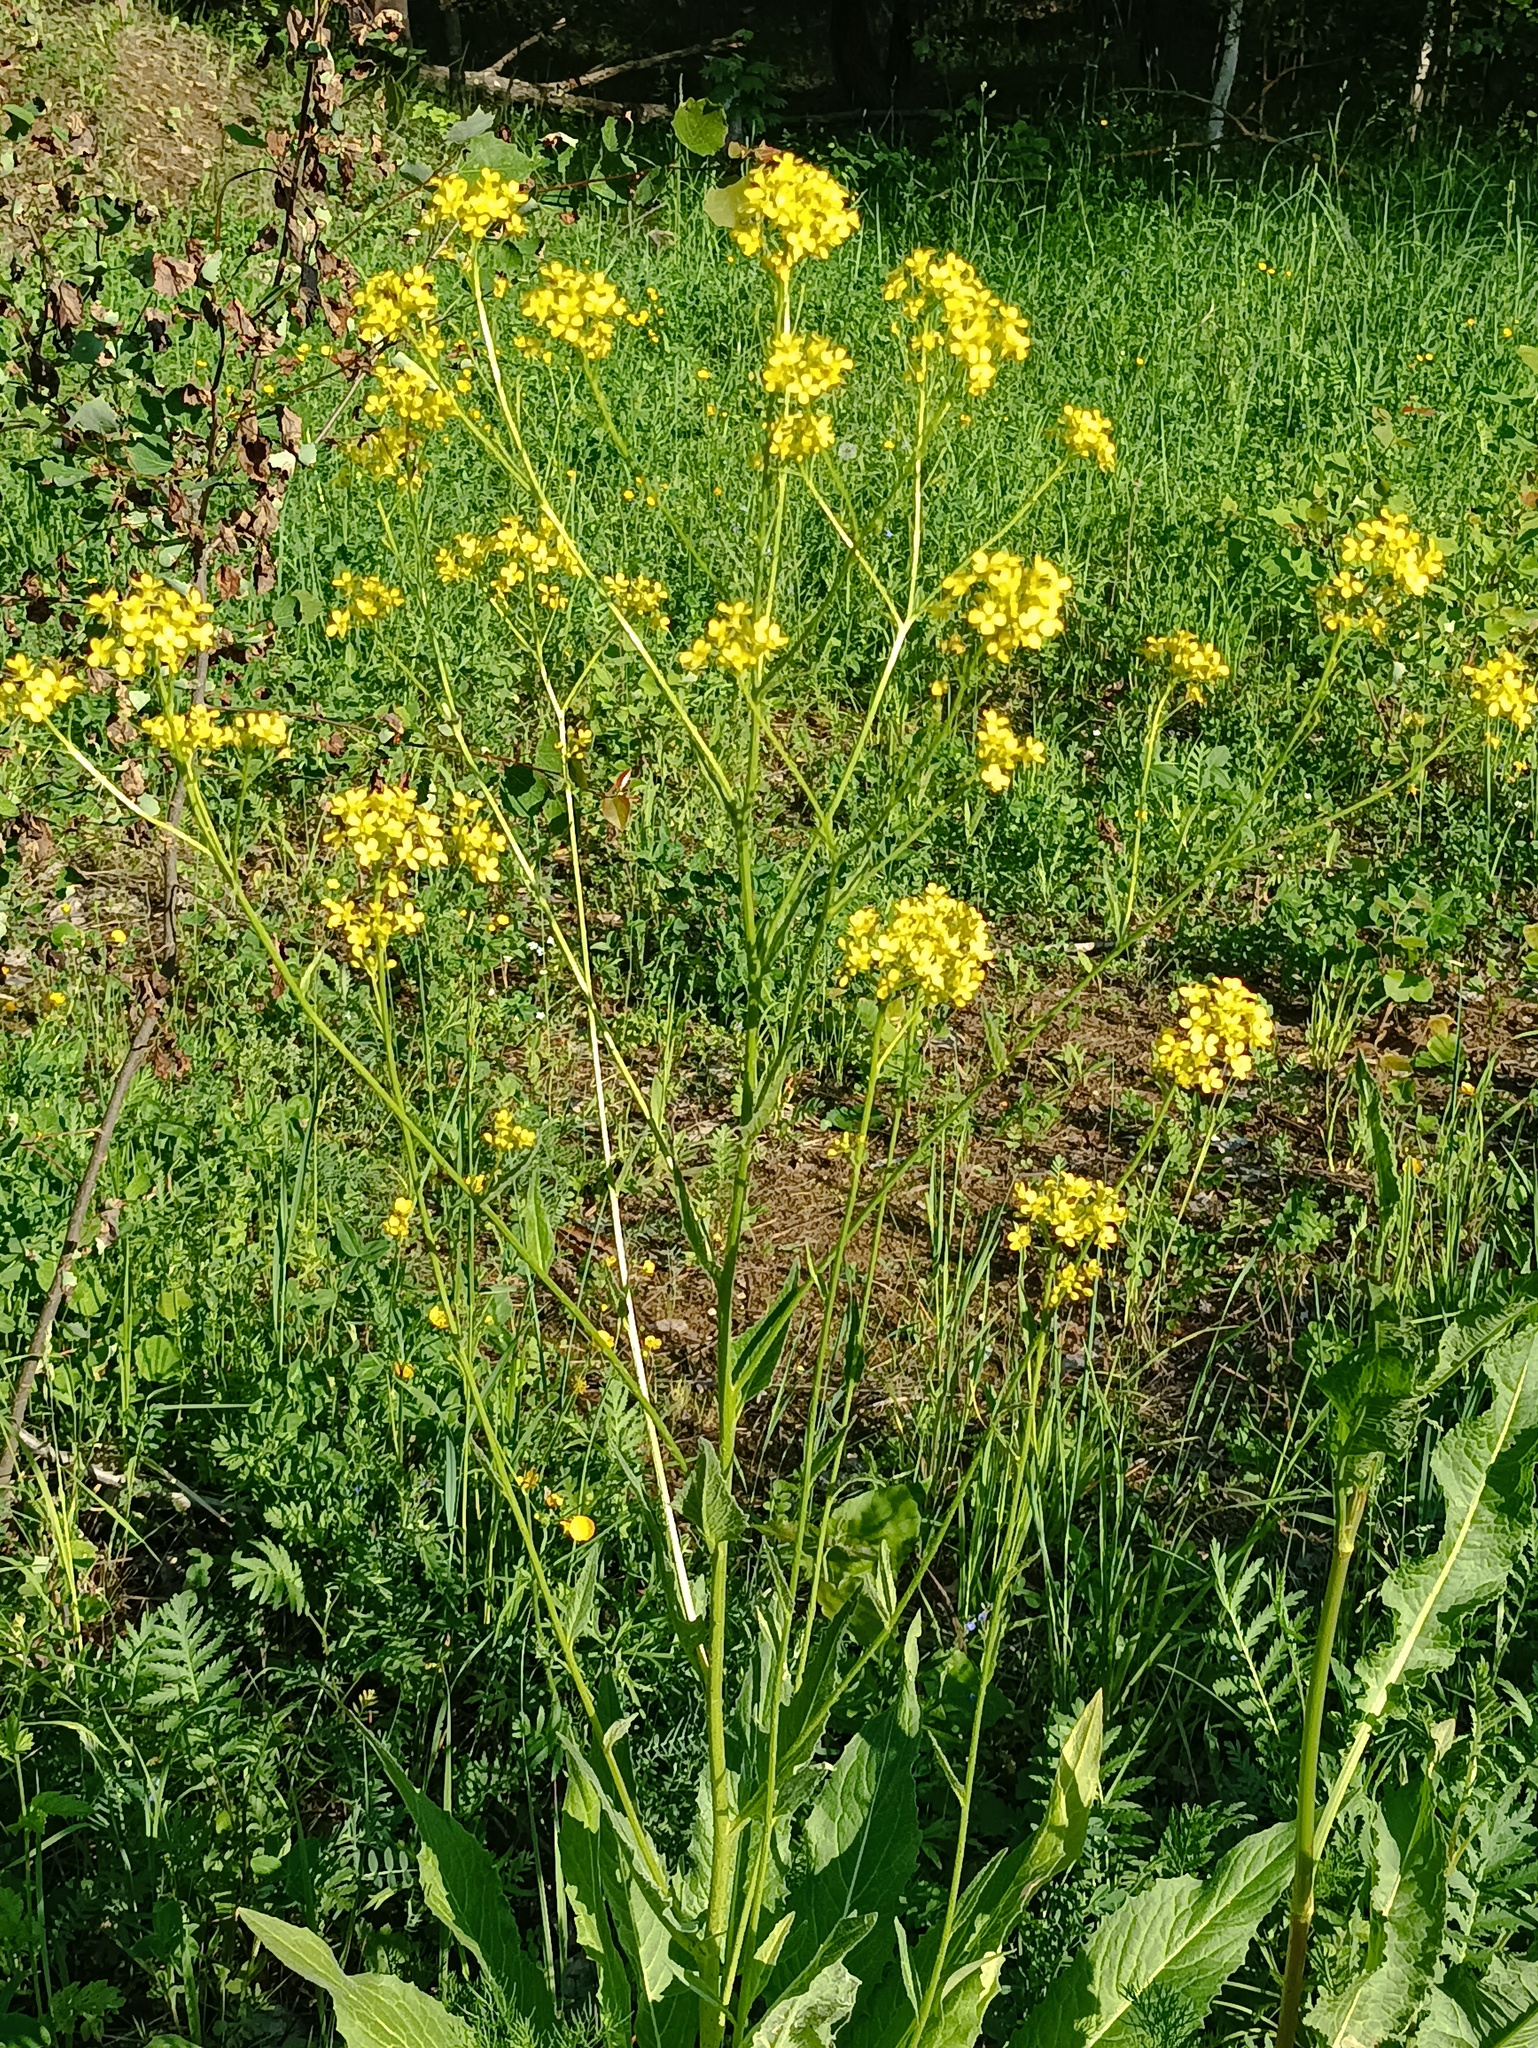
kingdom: Plantae
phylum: Tracheophyta
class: Magnoliopsida
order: Brassicales
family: Brassicaceae
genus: Bunias
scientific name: Bunias orientalis
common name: Warty-cabbage
